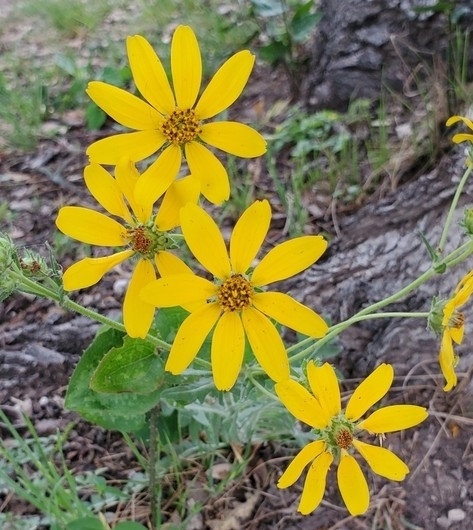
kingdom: Plantae
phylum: Tracheophyta
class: Magnoliopsida
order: Asterales
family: Asteraceae
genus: Engelmannia
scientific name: Engelmannia peristenia
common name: Engelmann's daisy
